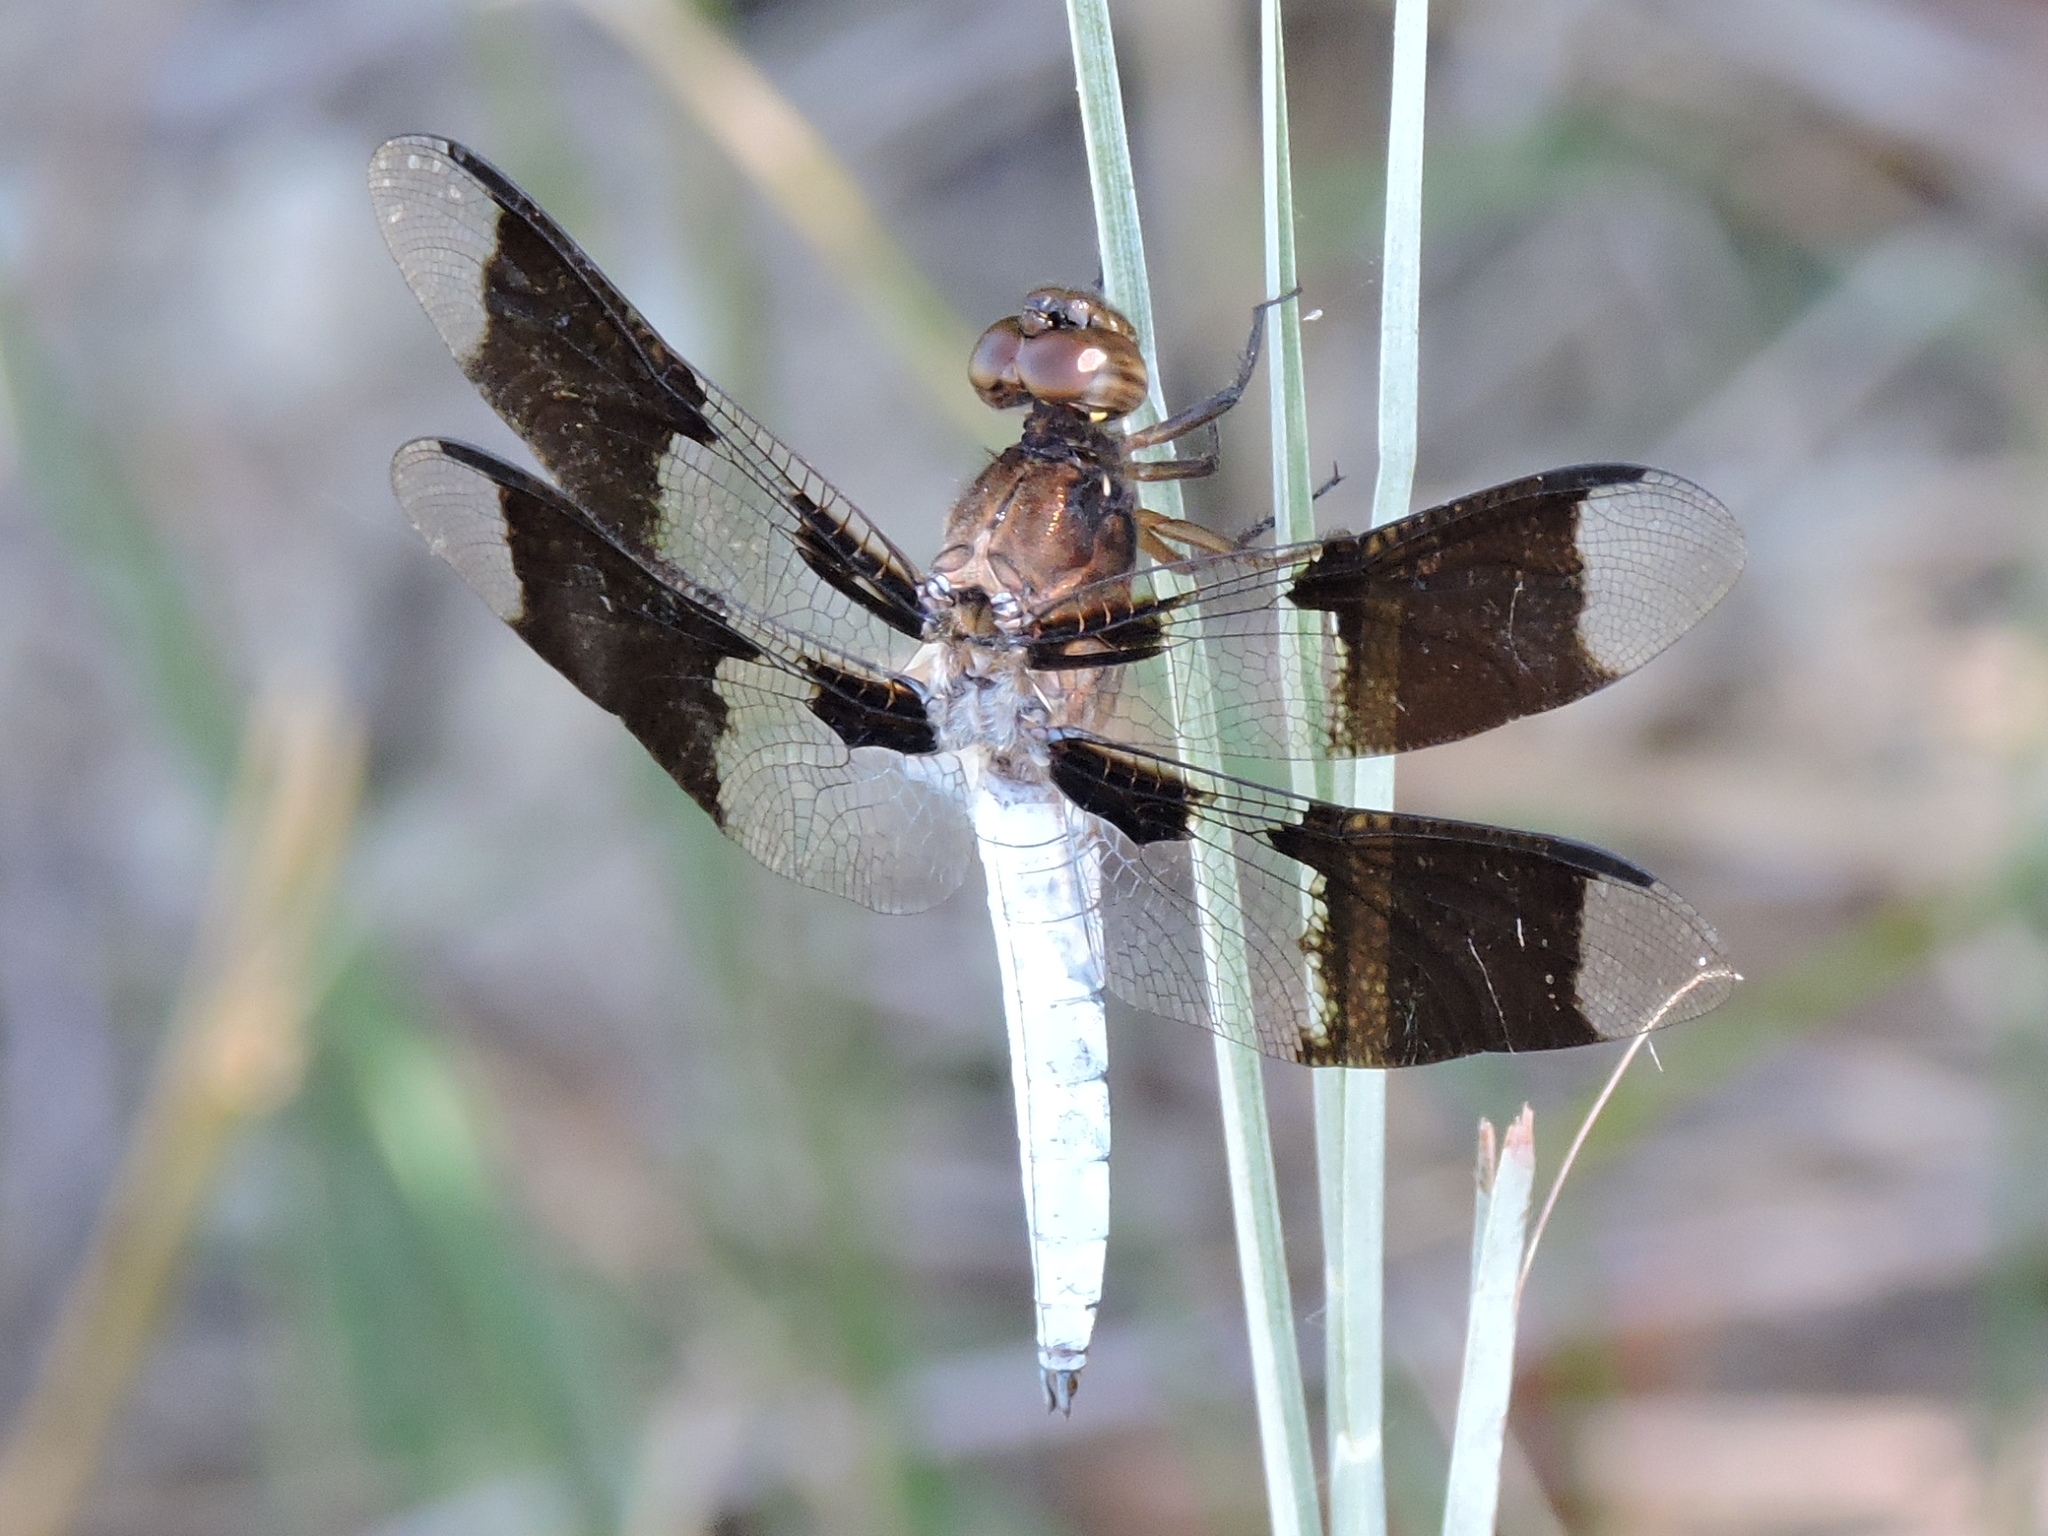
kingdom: Animalia
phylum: Arthropoda
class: Insecta
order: Odonata
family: Libellulidae
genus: Plathemis
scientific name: Plathemis lydia
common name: Common whitetail
